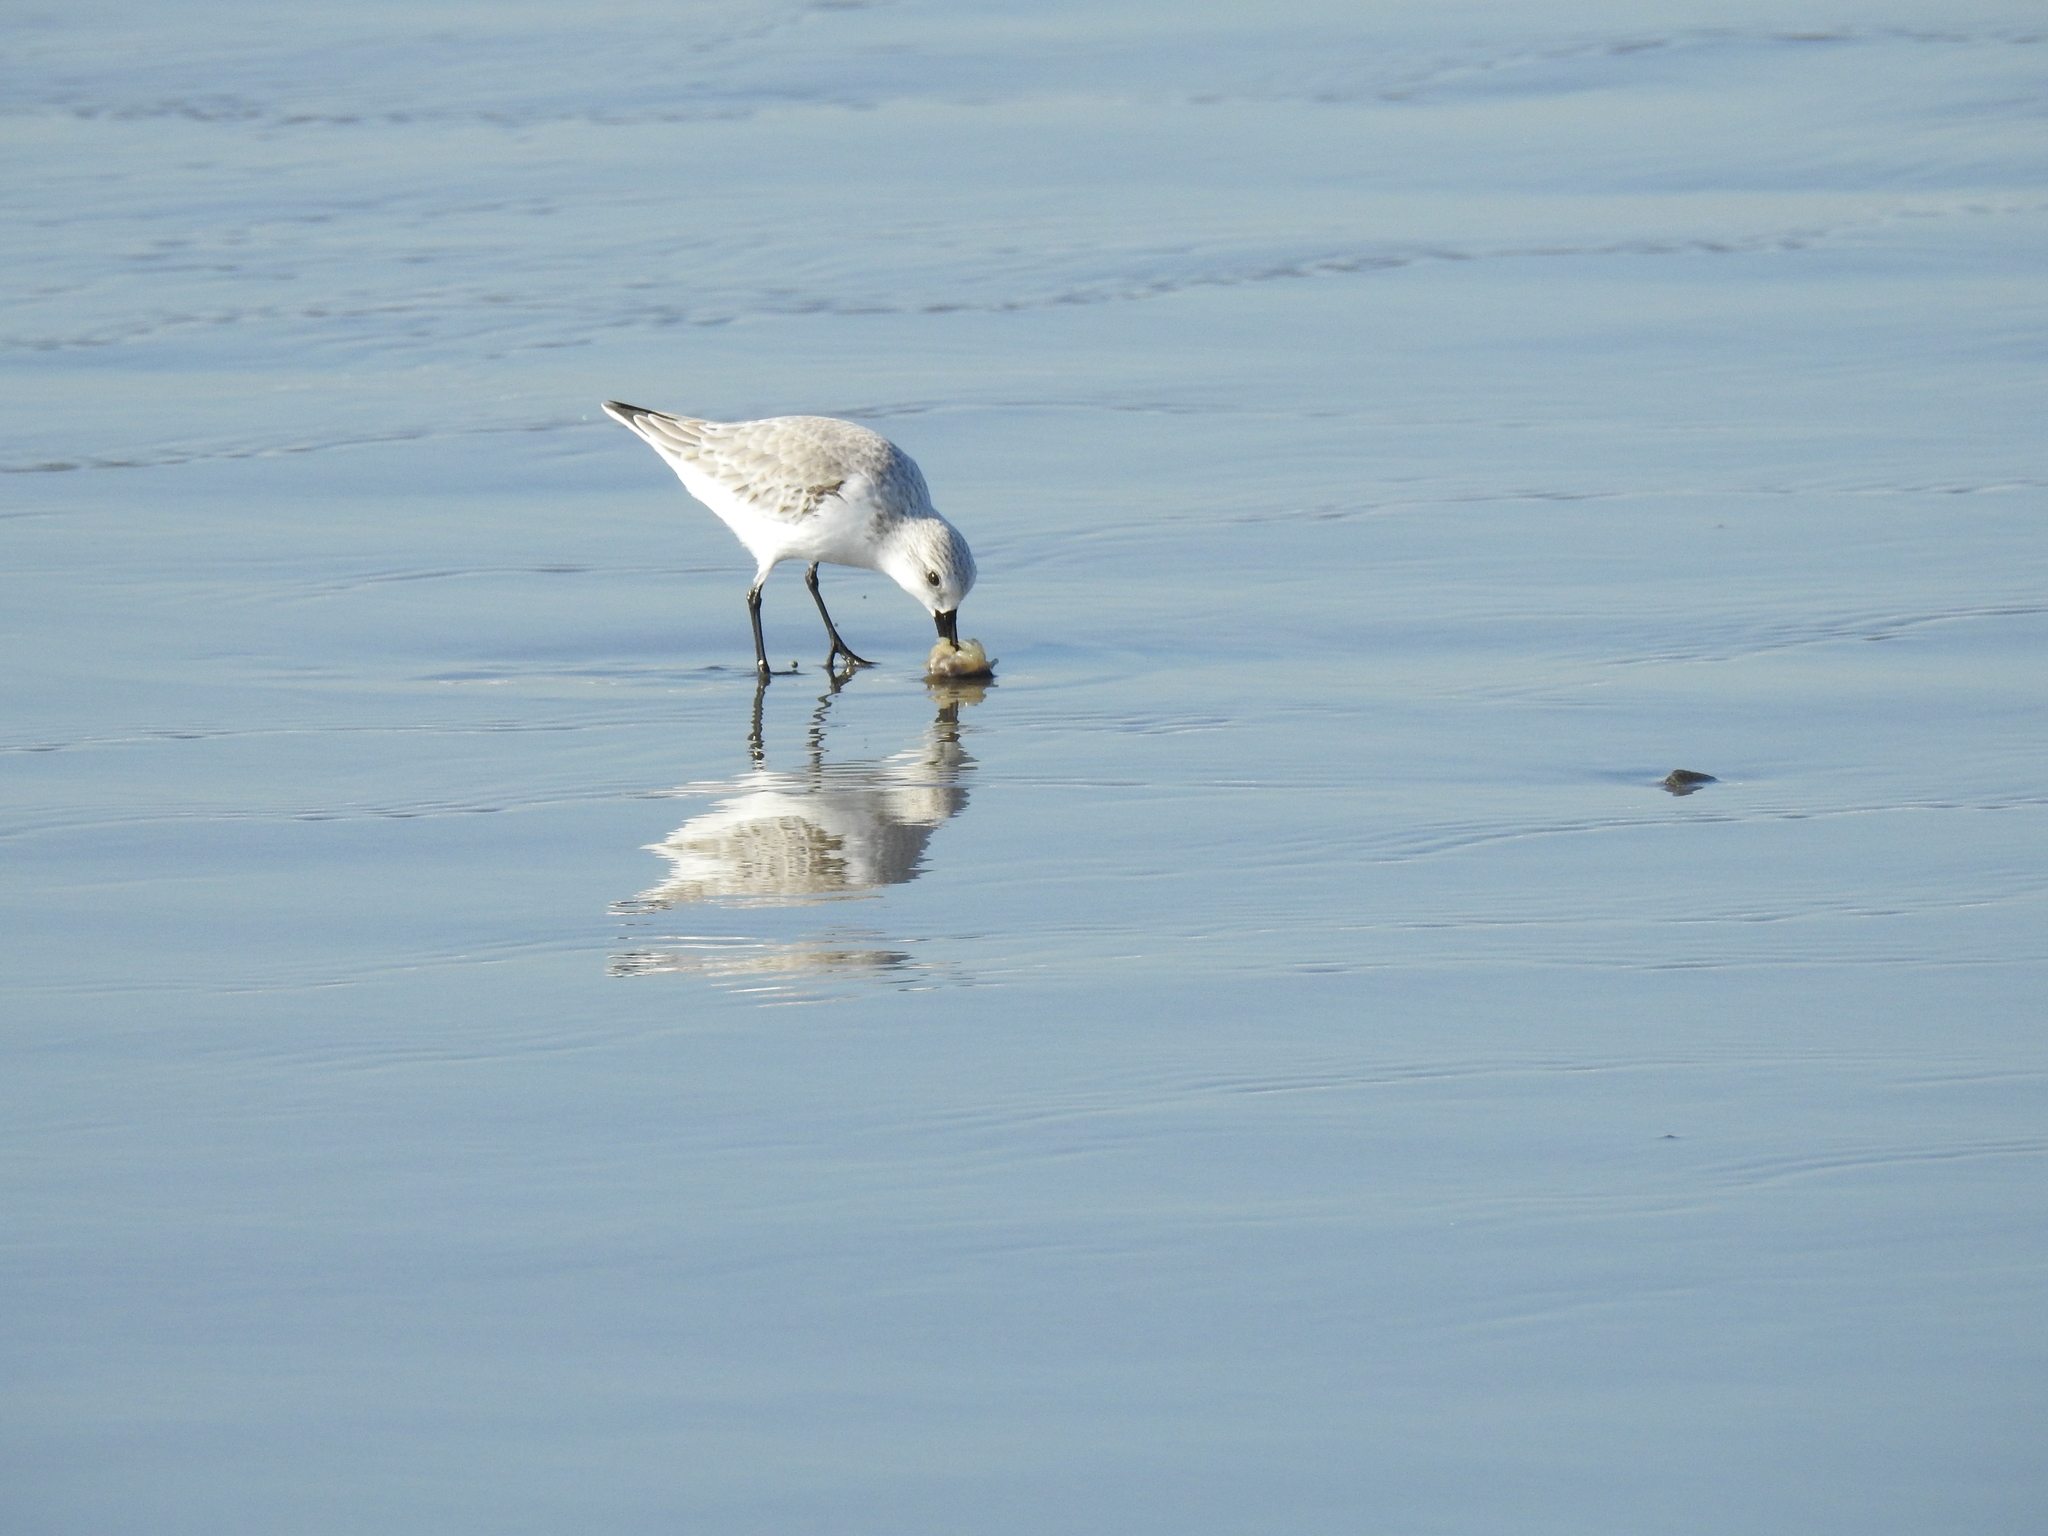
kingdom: Animalia
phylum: Chordata
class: Aves
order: Charadriiformes
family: Scolopacidae
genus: Calidris
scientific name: Calidris alba
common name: Sanderling
